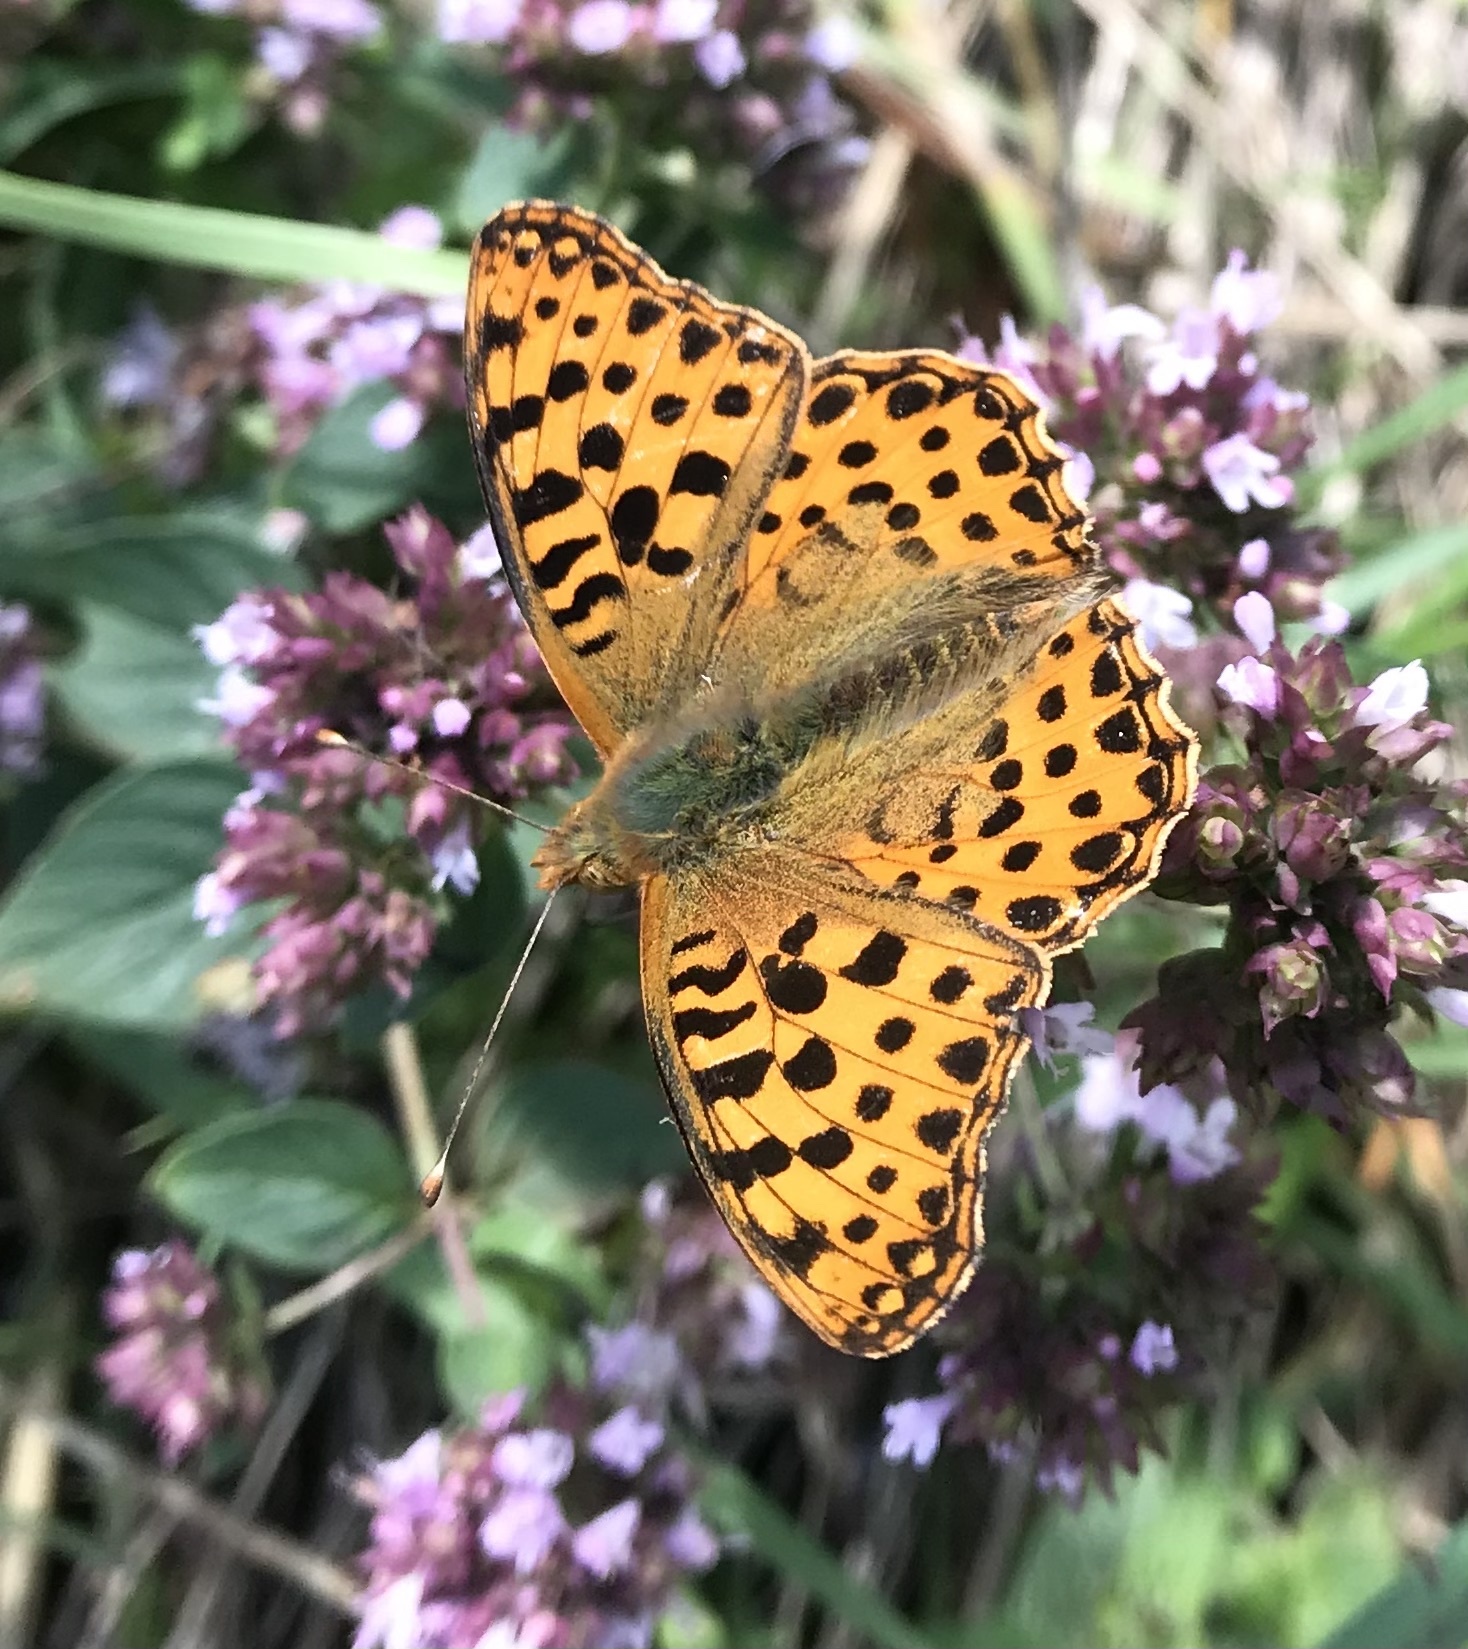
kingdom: Animalia
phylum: Arthropoda
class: Insecta
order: Lepidoptera
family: Nymphalidae
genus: Issoria
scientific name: Issoria lathonia
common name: Queen of spain fritillary
